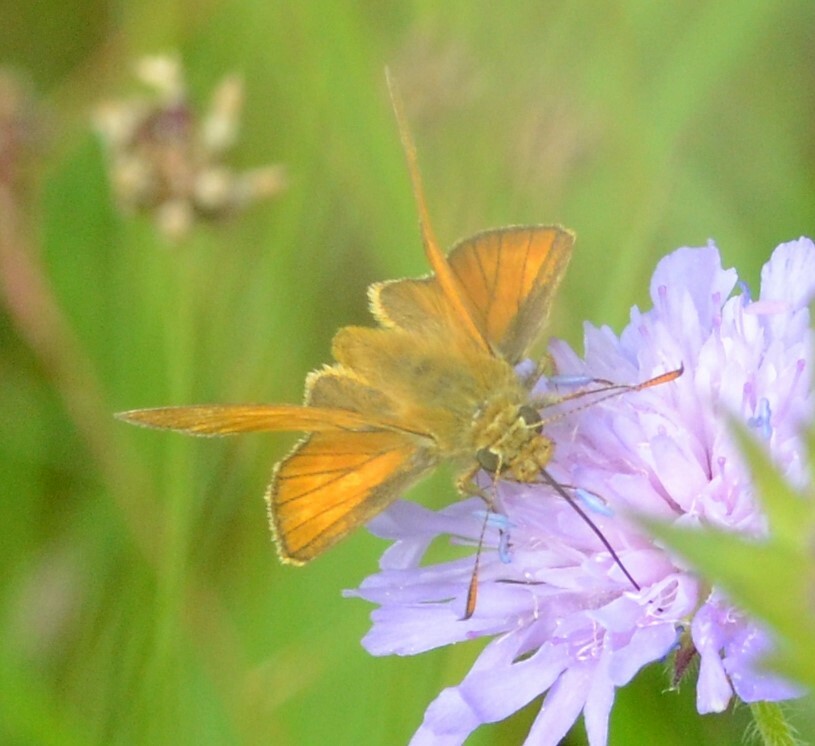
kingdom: Animalia
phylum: Arthropoda
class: Insecta
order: Lepidoptera
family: Hesperiidae
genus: Ochlodes
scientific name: Ochlodes venata
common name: Large skipper
